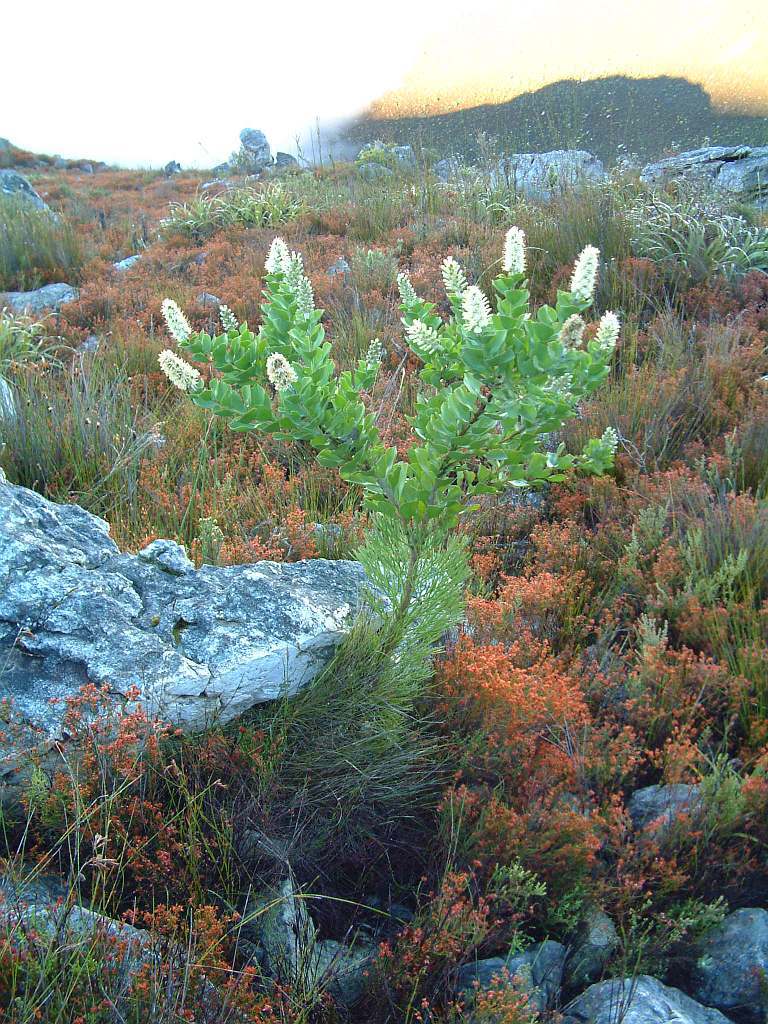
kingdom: Plantae
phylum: Tracheophyta
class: Magnoliopsida
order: Proteales
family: Proteaceae
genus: Paranomus
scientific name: Paranomus sceptrum-gustavianus
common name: King gustav's sceptre
